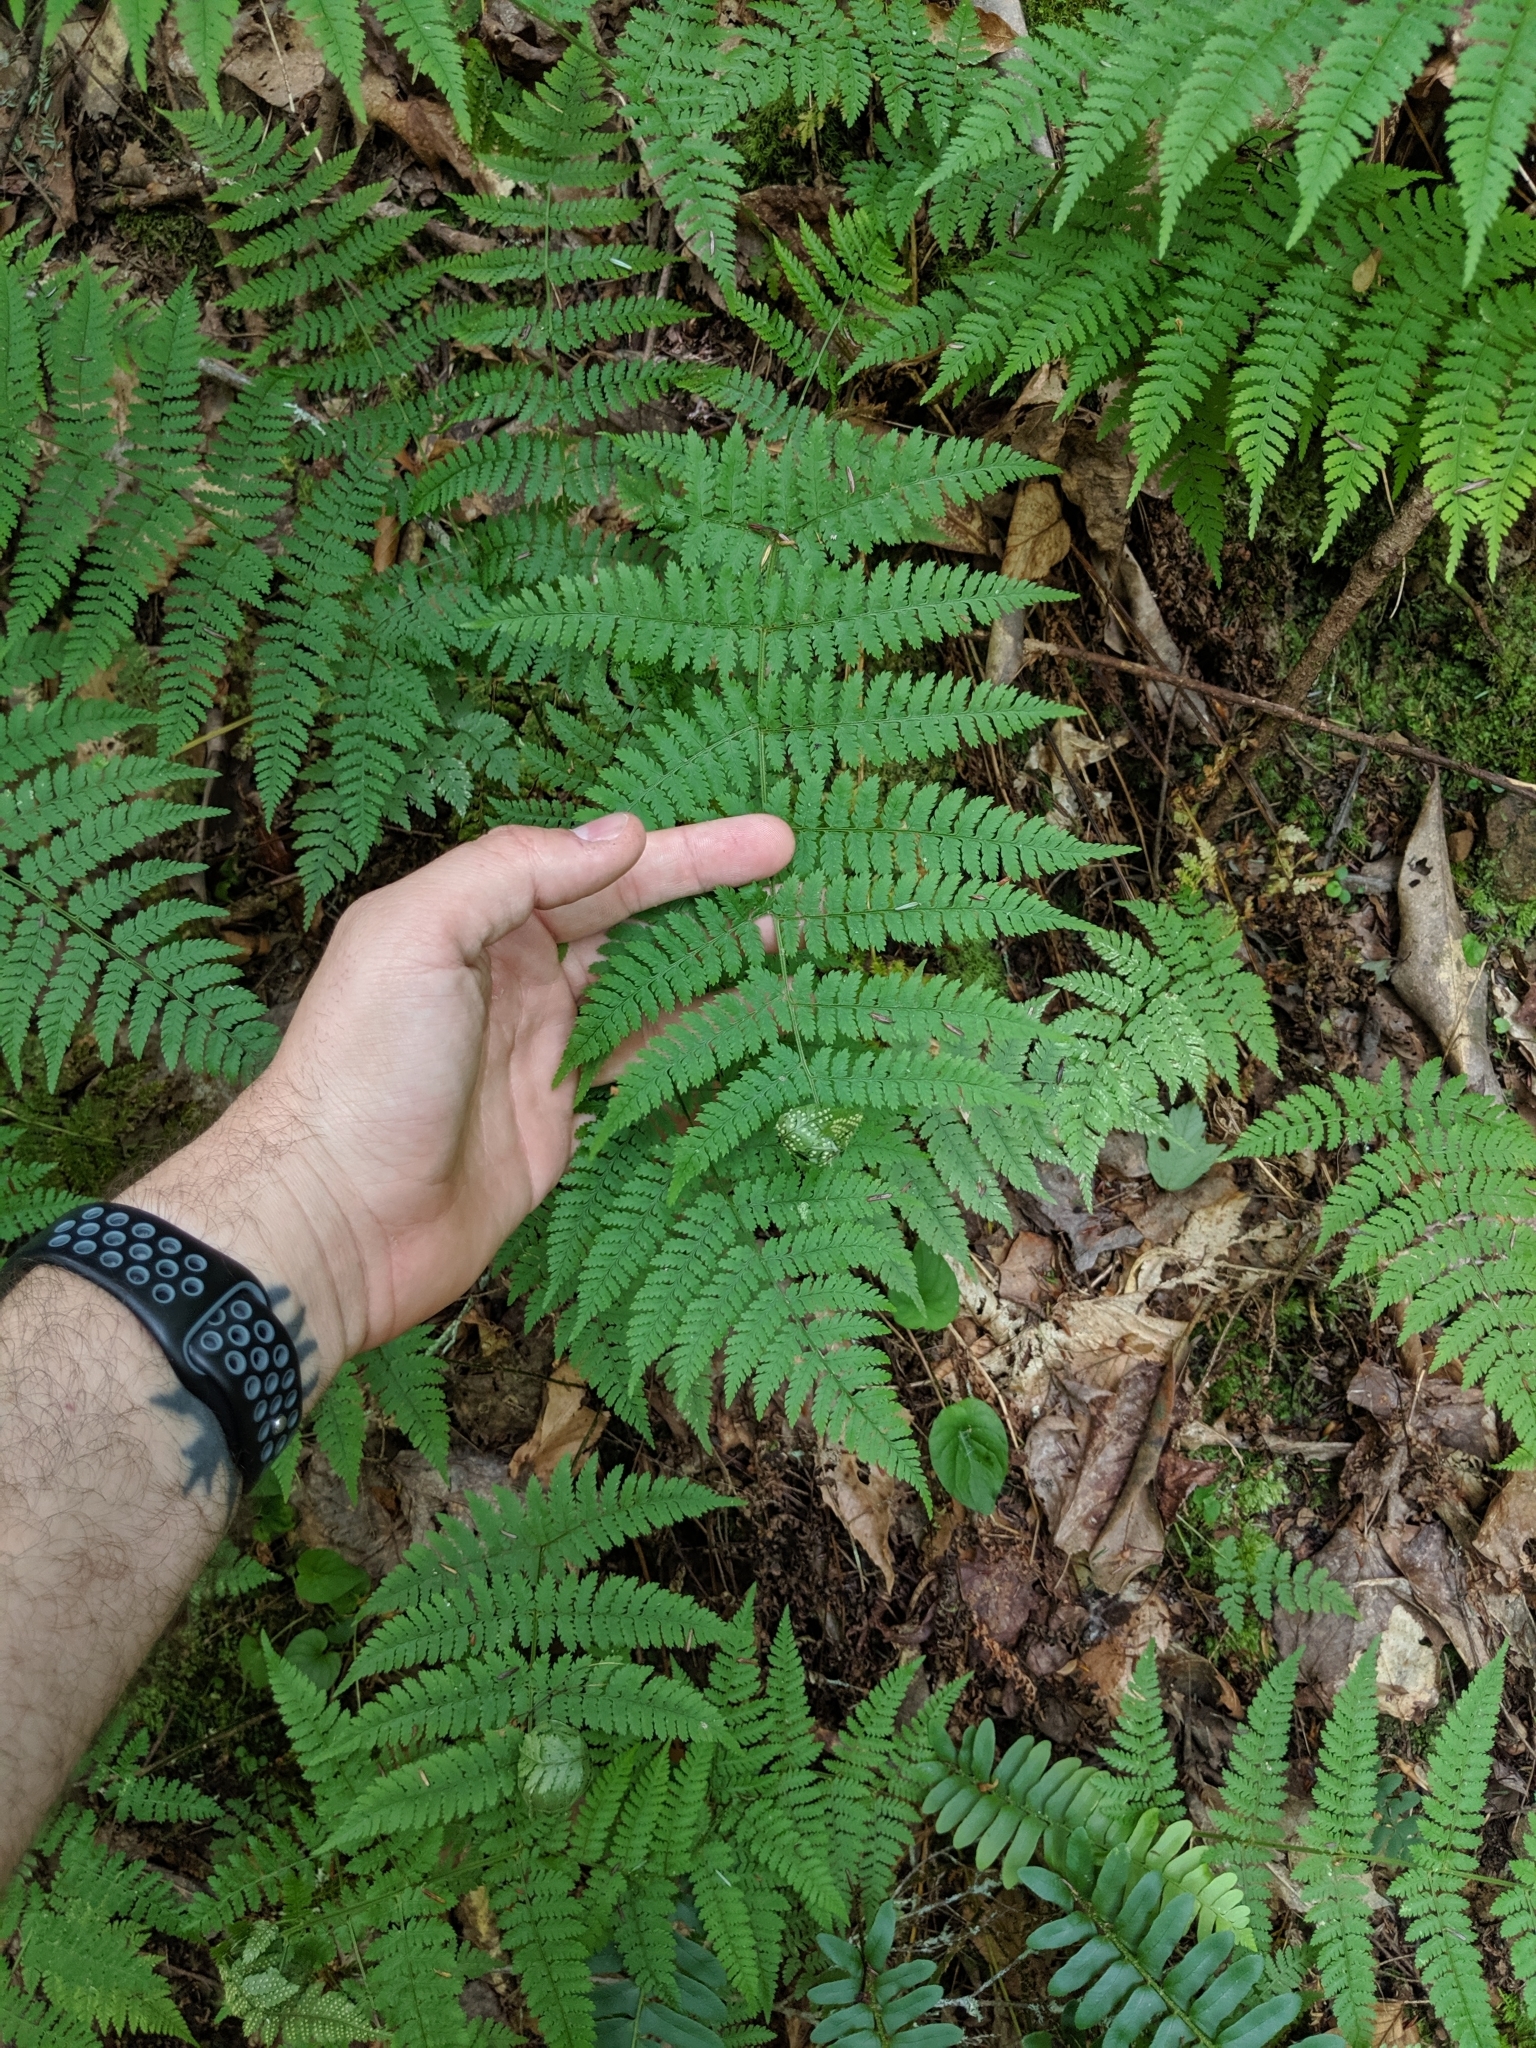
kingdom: Plantae
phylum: Tracheophyta
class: Polypodiopsida
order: Polypodiales
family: Dryopteridaceae
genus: Dryopteris
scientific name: Dryopteris intermedia
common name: Evergreen wood fern
